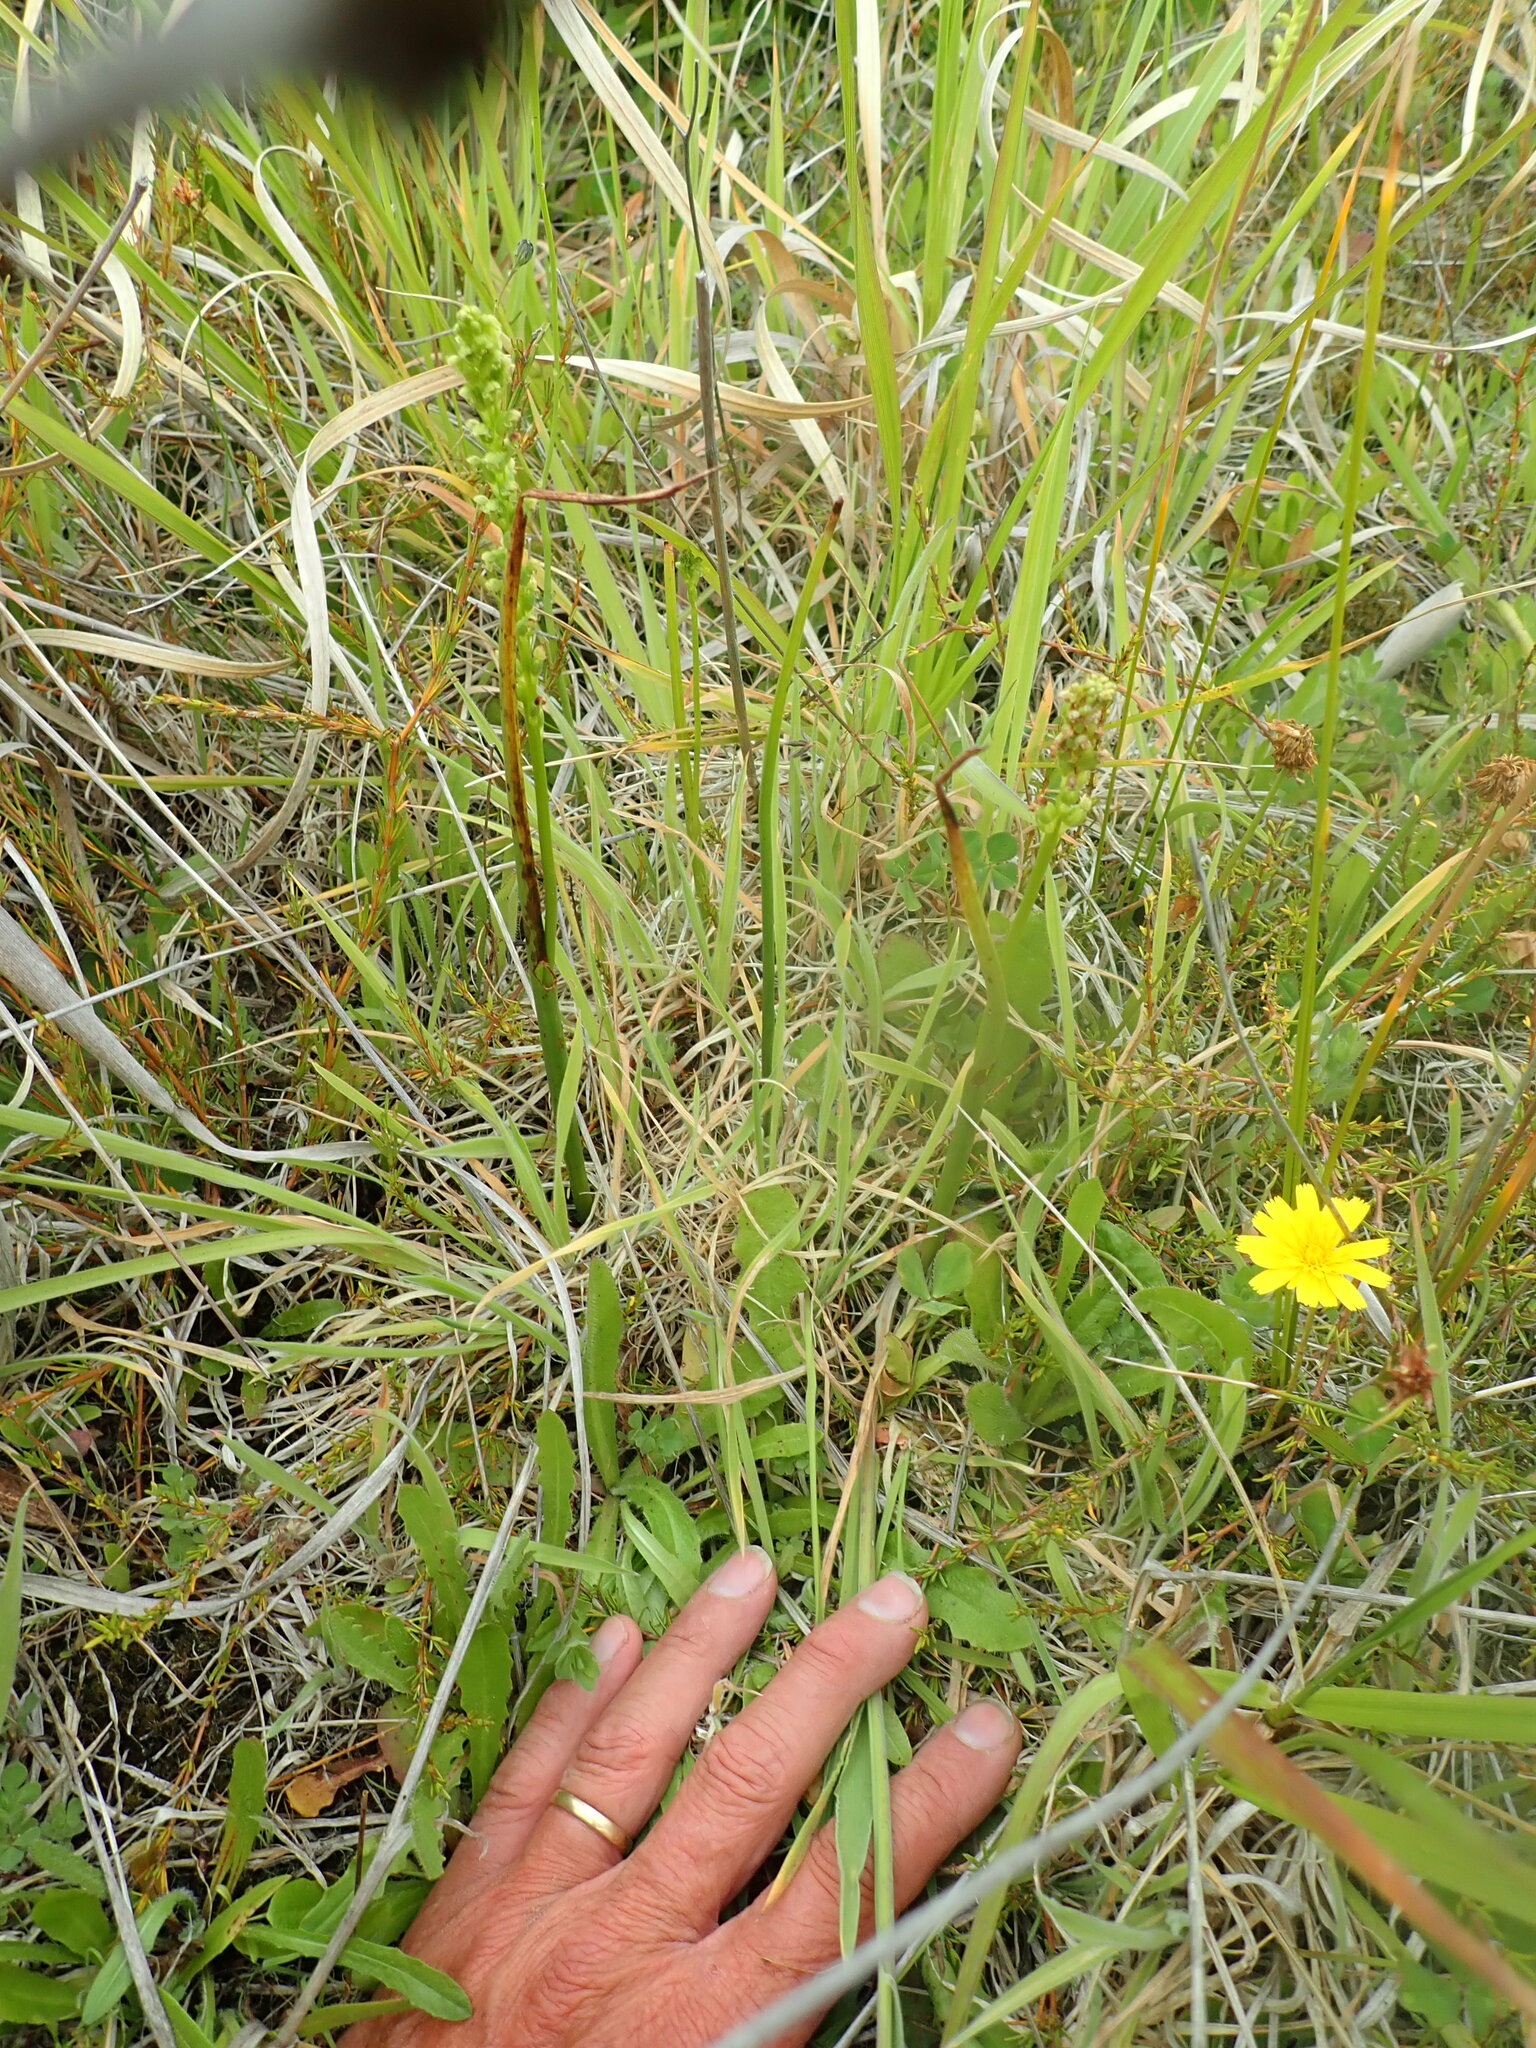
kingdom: Plantae
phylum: Tracheophyta
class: Liliopsida
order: Asparagales
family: Orchidaceae
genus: Microtis
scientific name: Microtis unifolia
